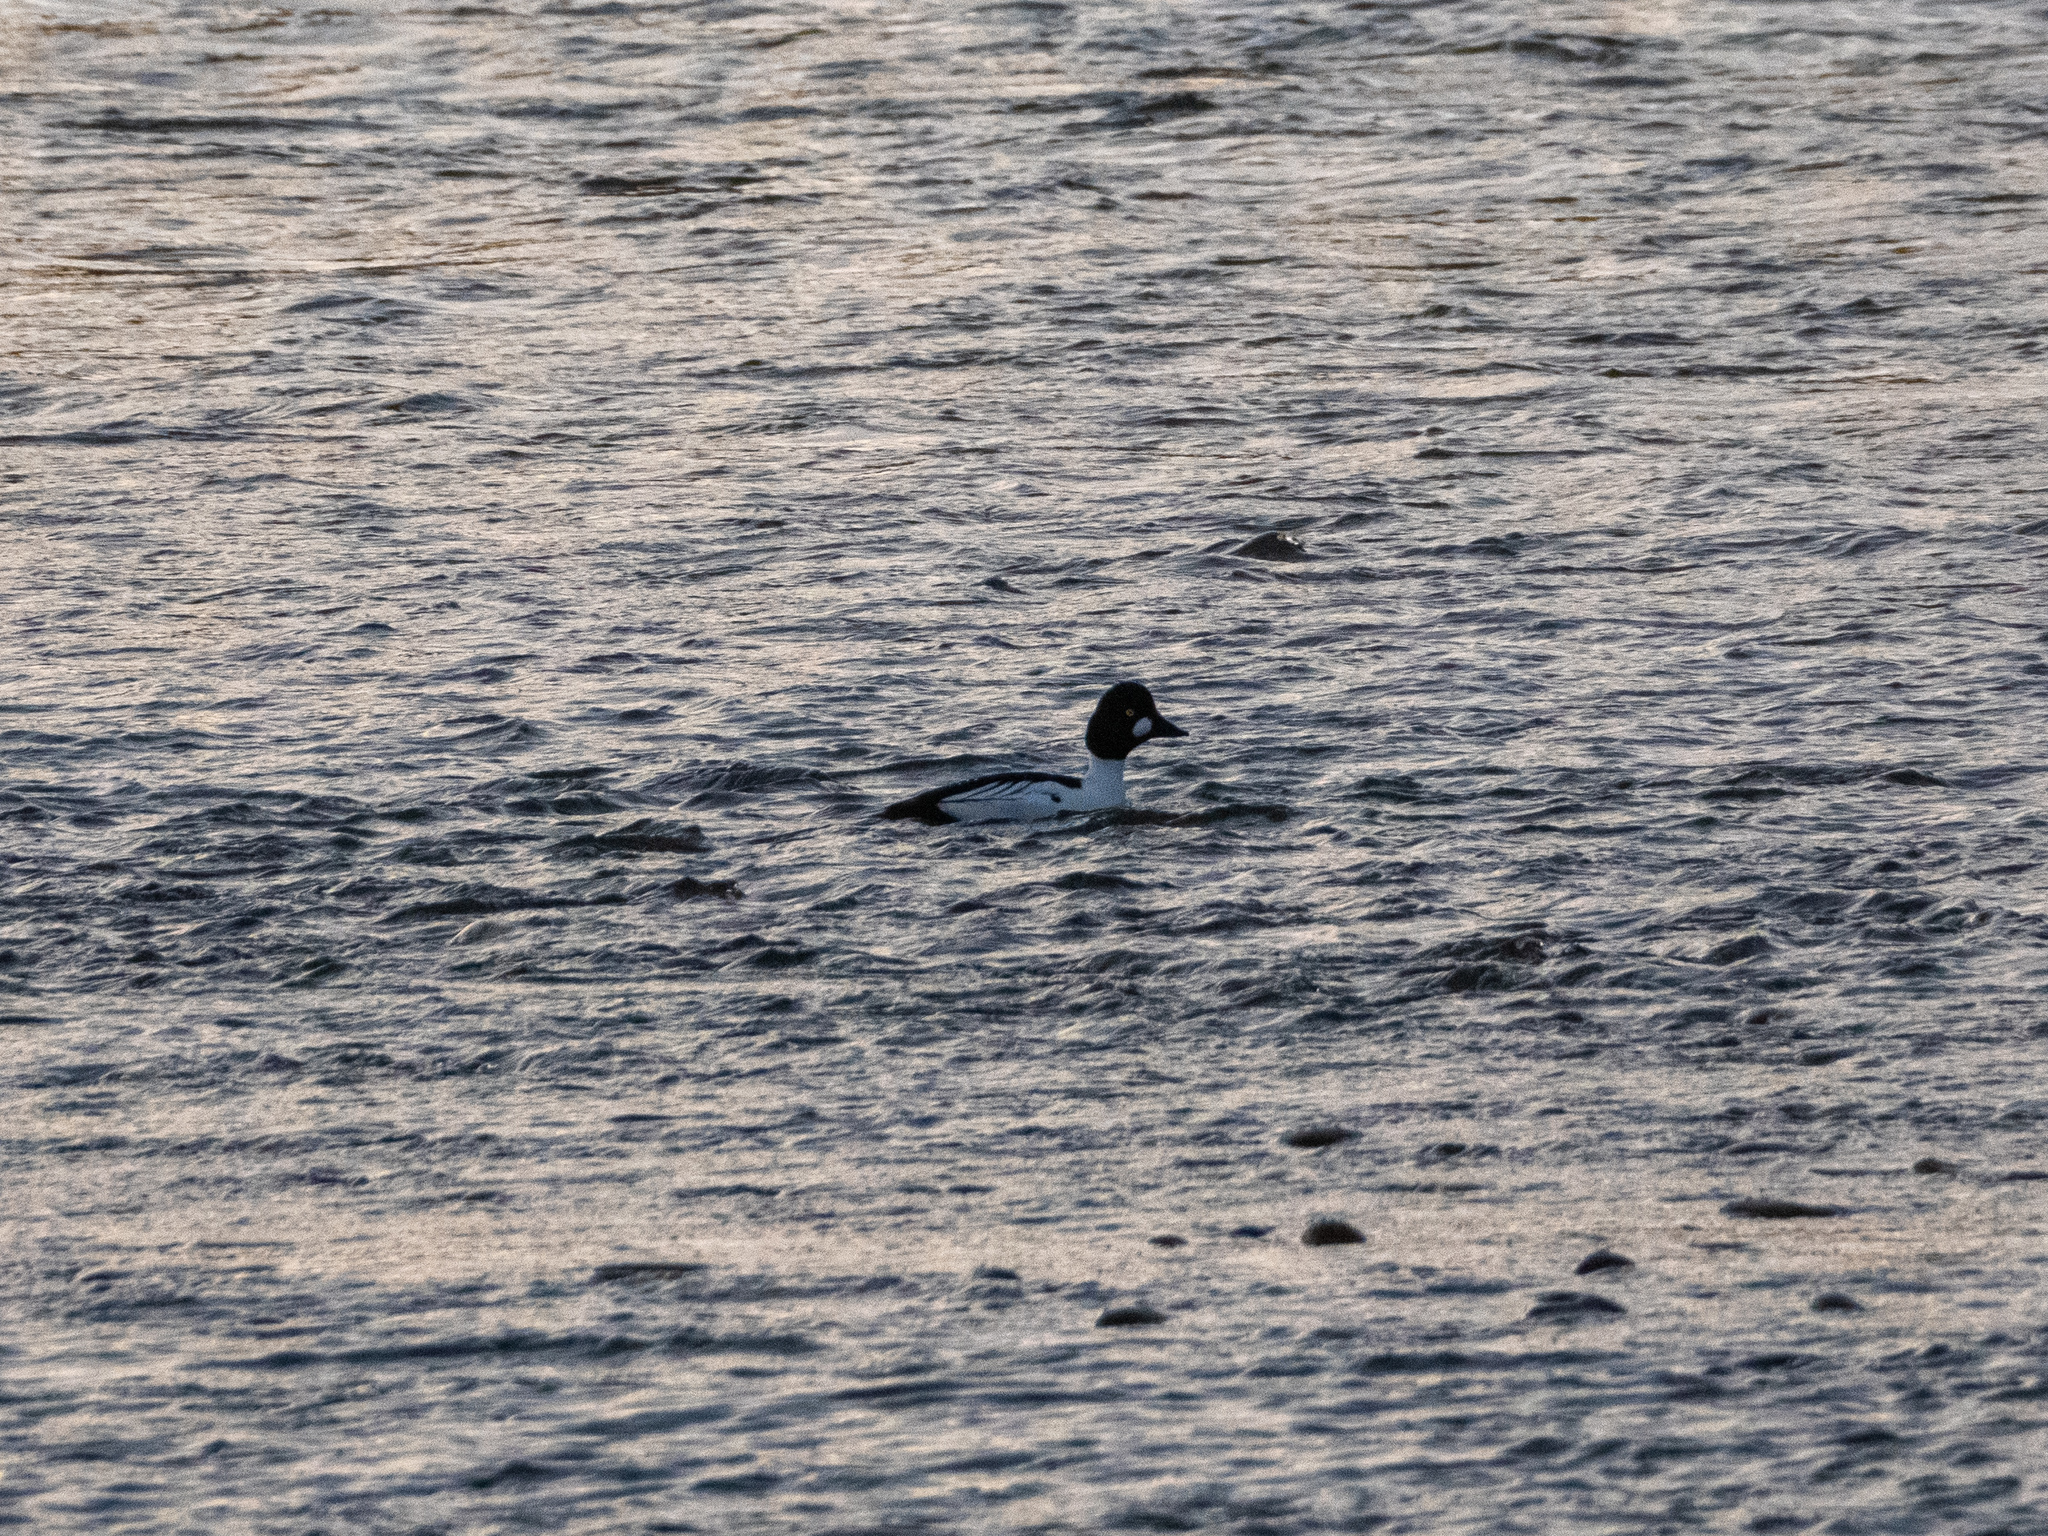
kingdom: Animalia
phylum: Chordata
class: Aves
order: Anseriformes
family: Anatidae
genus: Bucephala
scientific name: Bucephala clangula
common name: Common goldeneye
